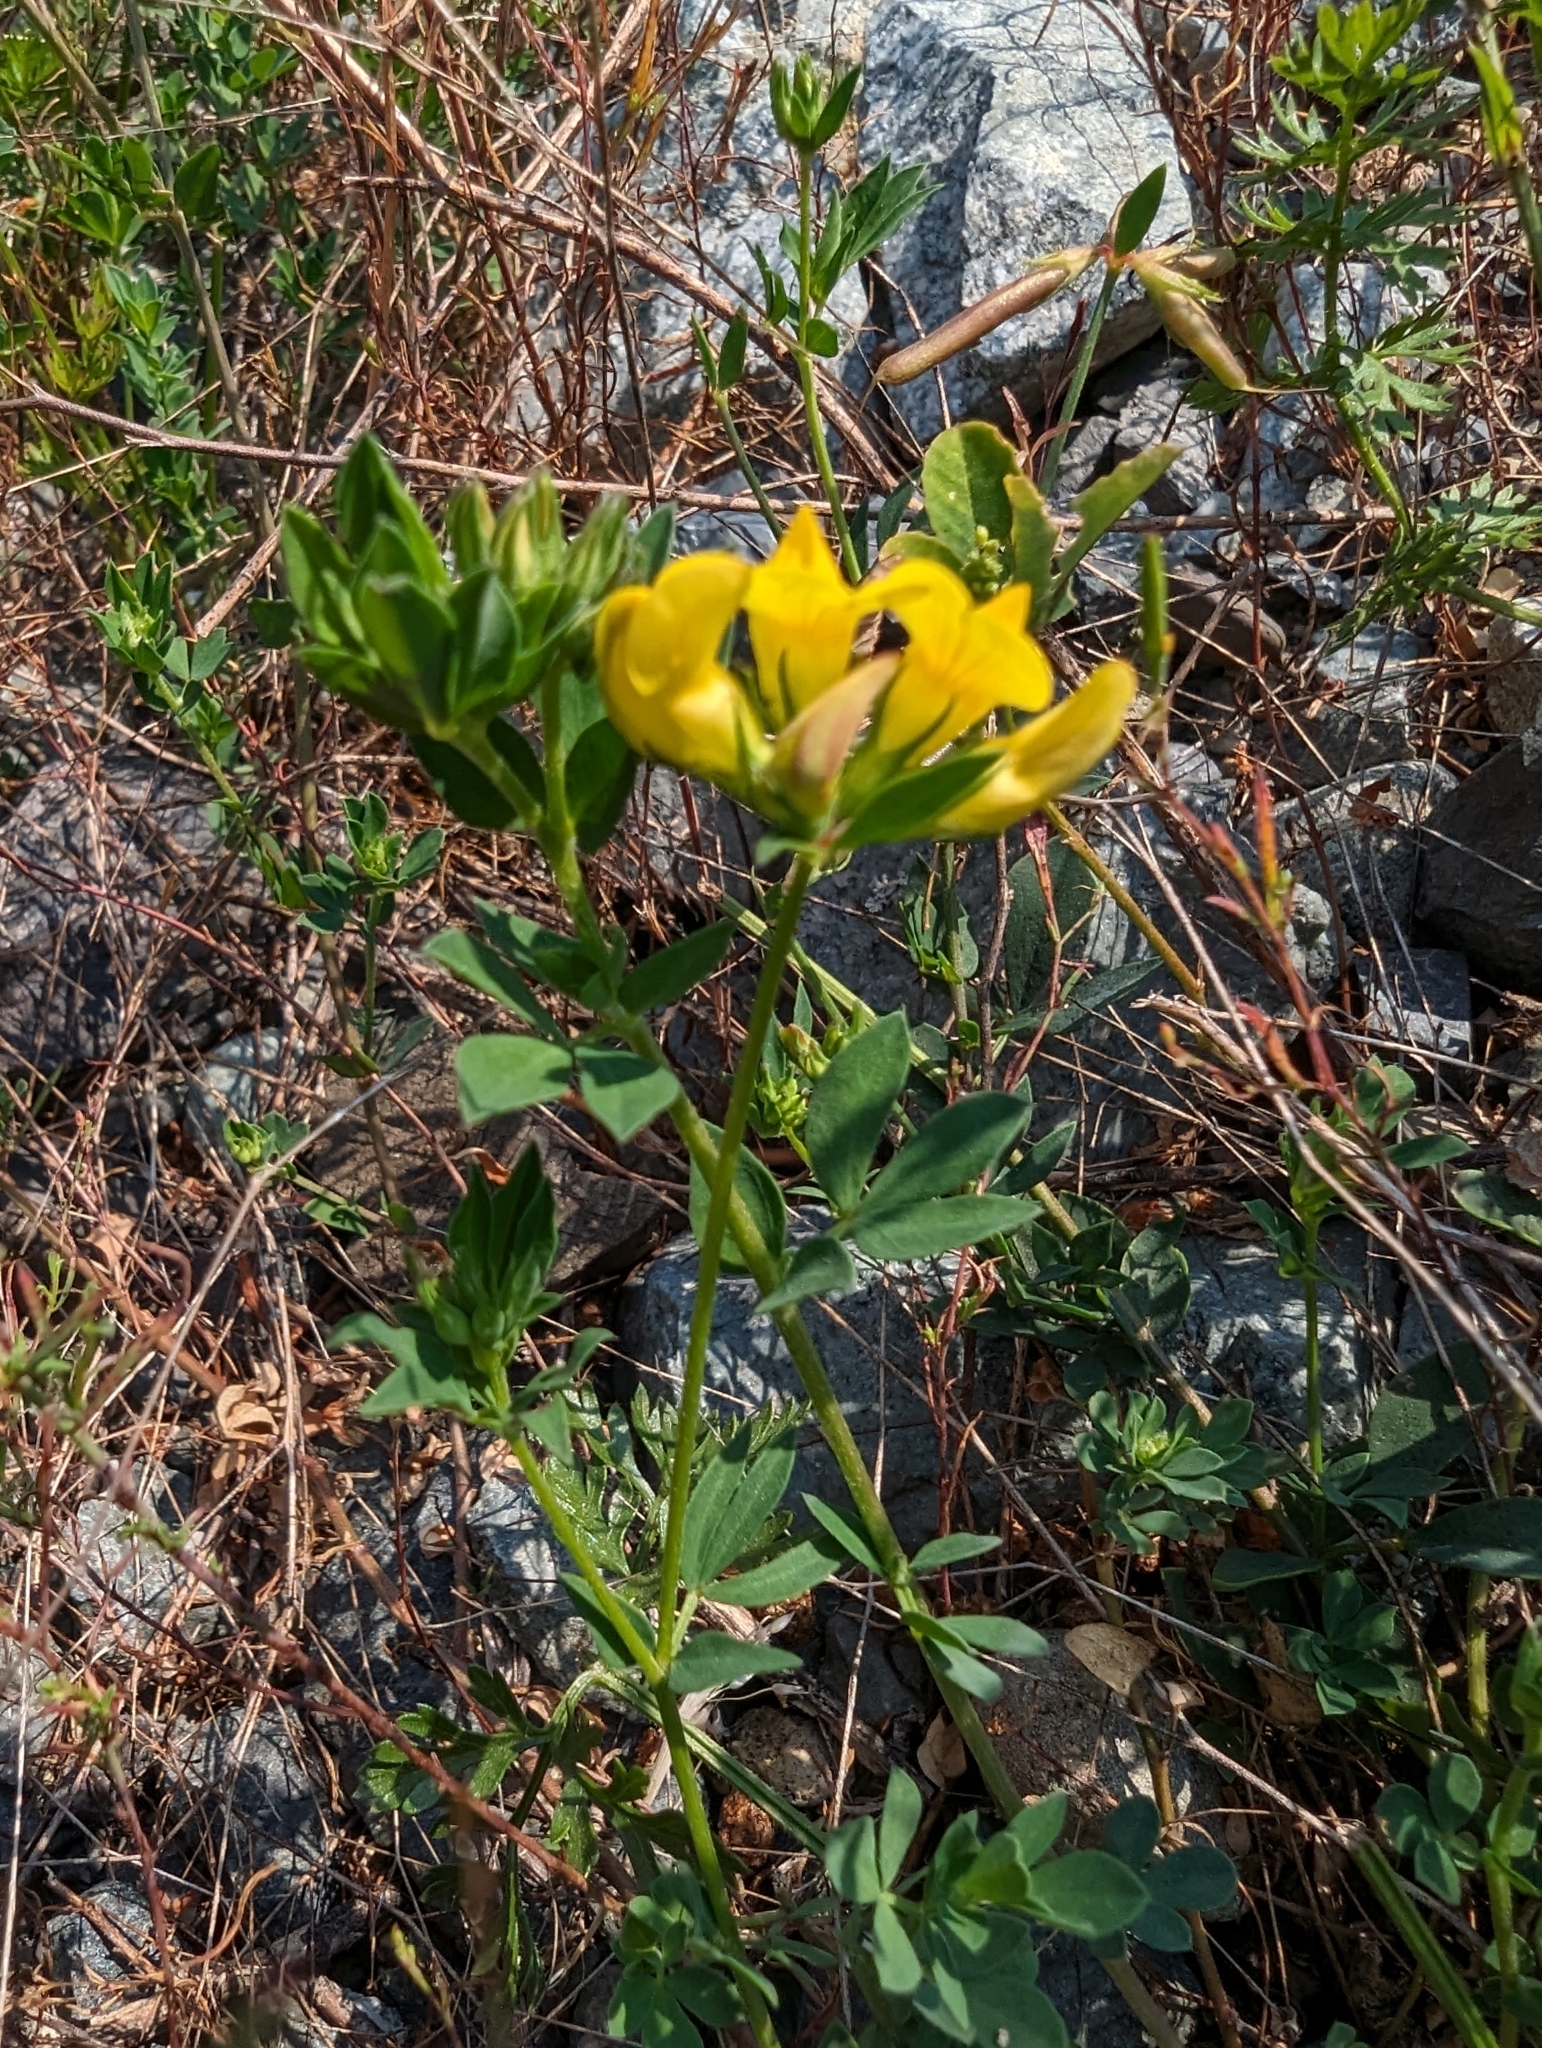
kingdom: Plantae
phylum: Tracheophyta
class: Magnoliopsida
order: Fabales
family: Fabaceae
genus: Lotus
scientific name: Lotus corniculatus
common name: Common bird's-foot-trefoil
